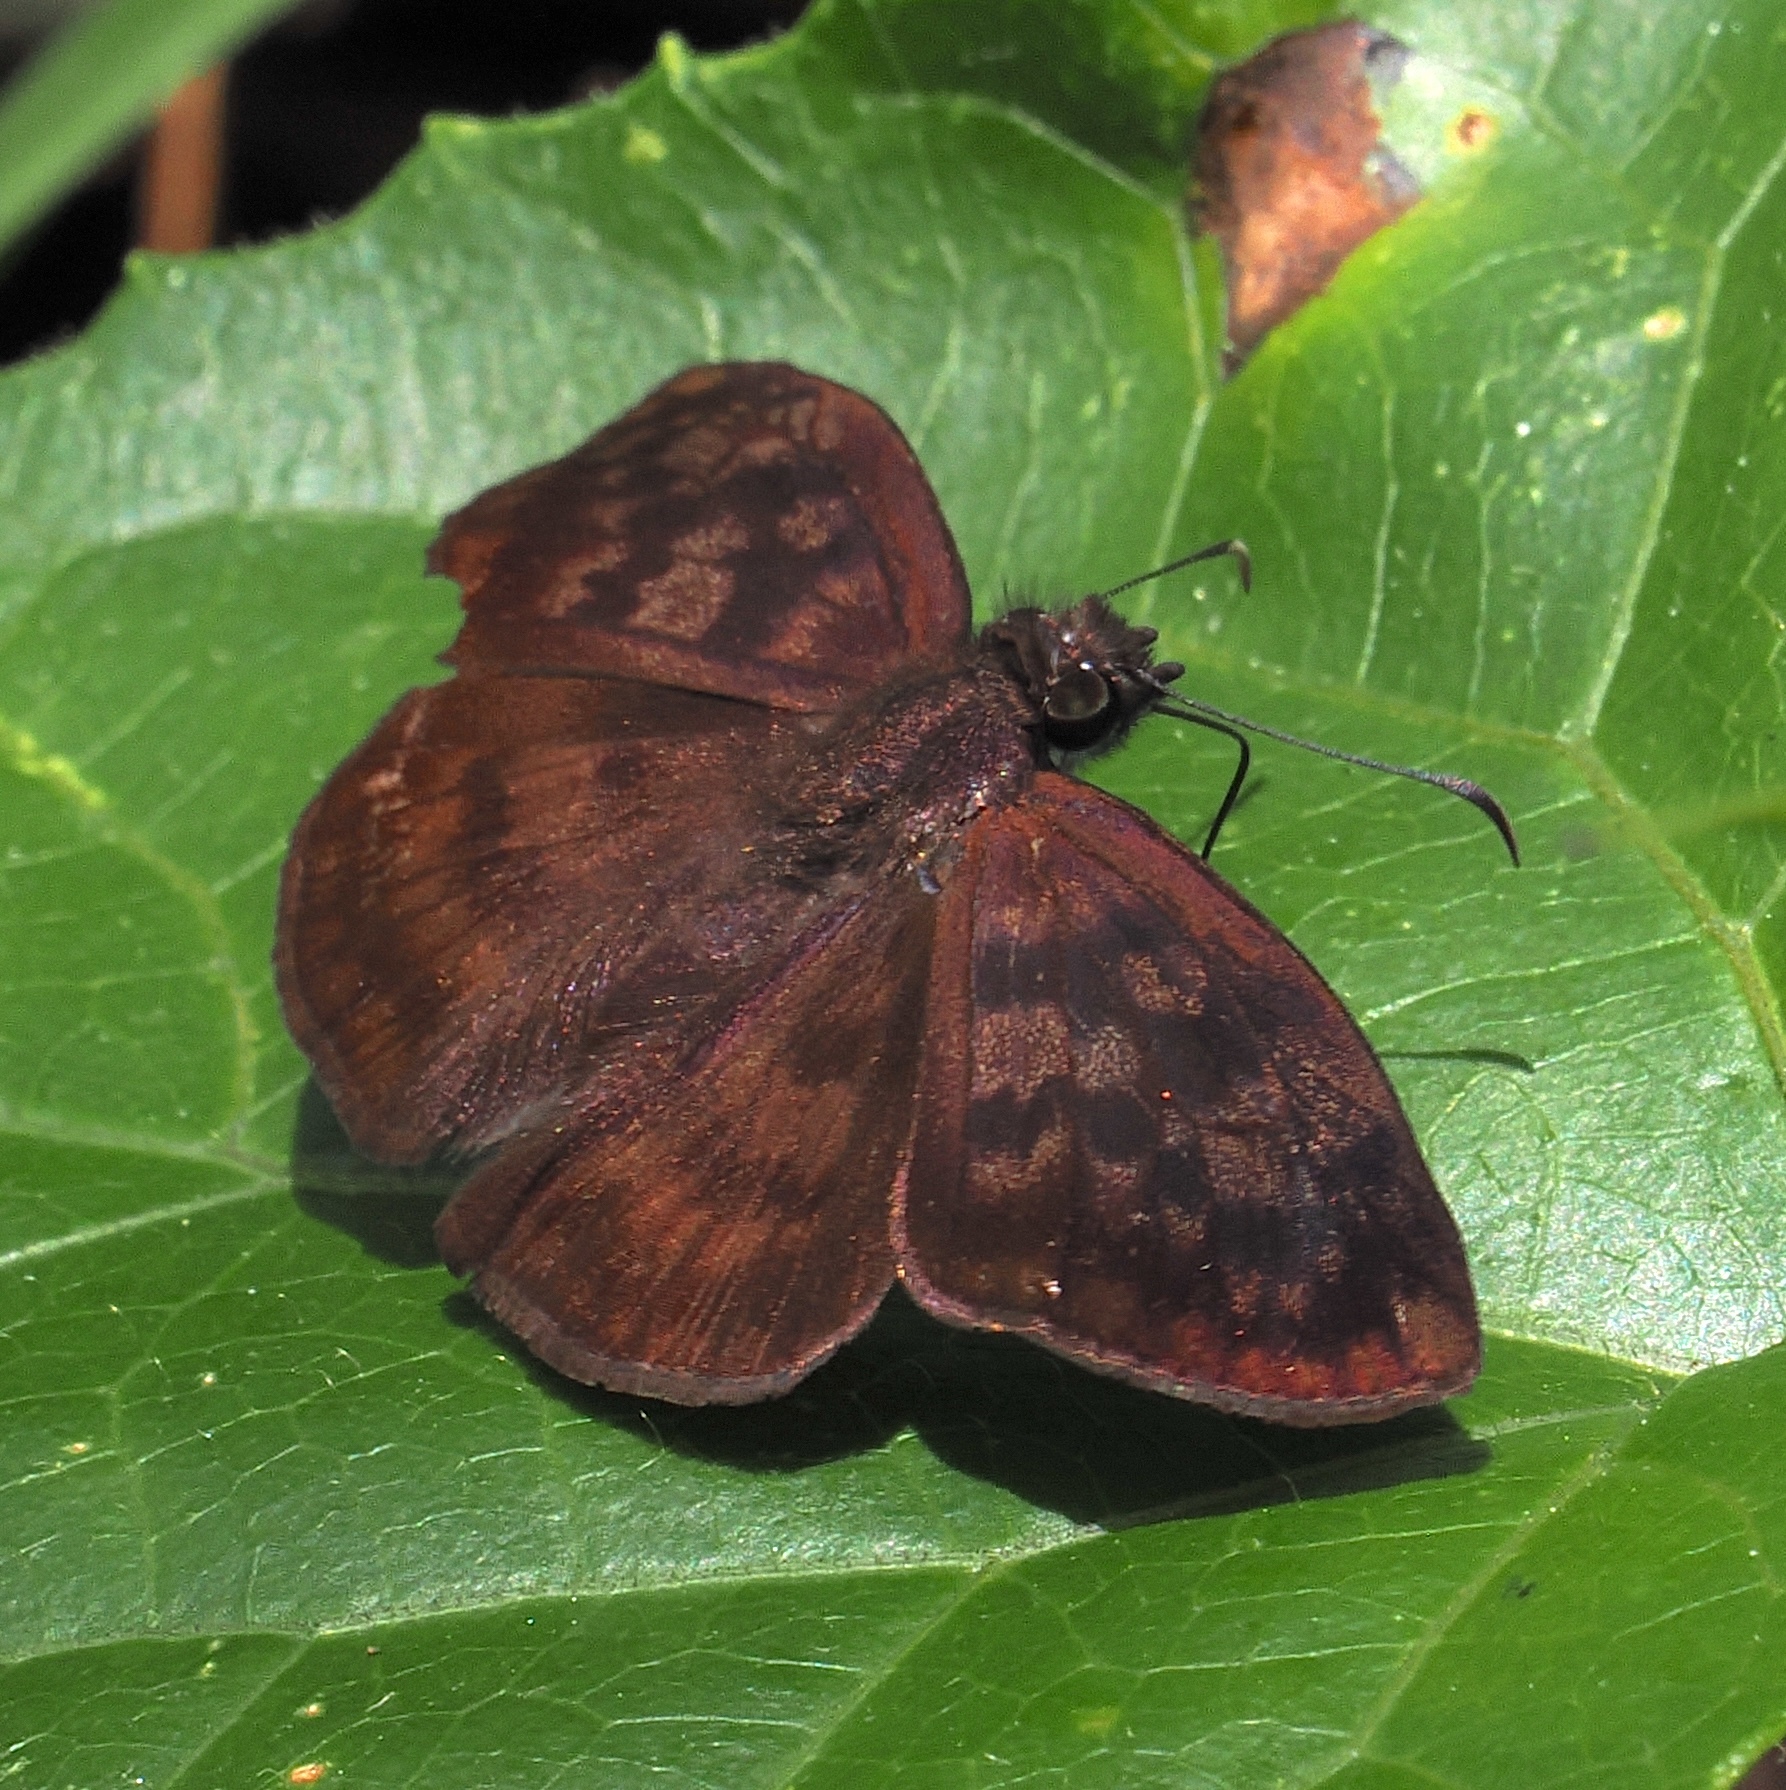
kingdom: Animalia
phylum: Arthropoda
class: Insecta
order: Lepidoptera
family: Hesperiidae
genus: Anastrus
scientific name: Anastrus Echelatus sempiternus
